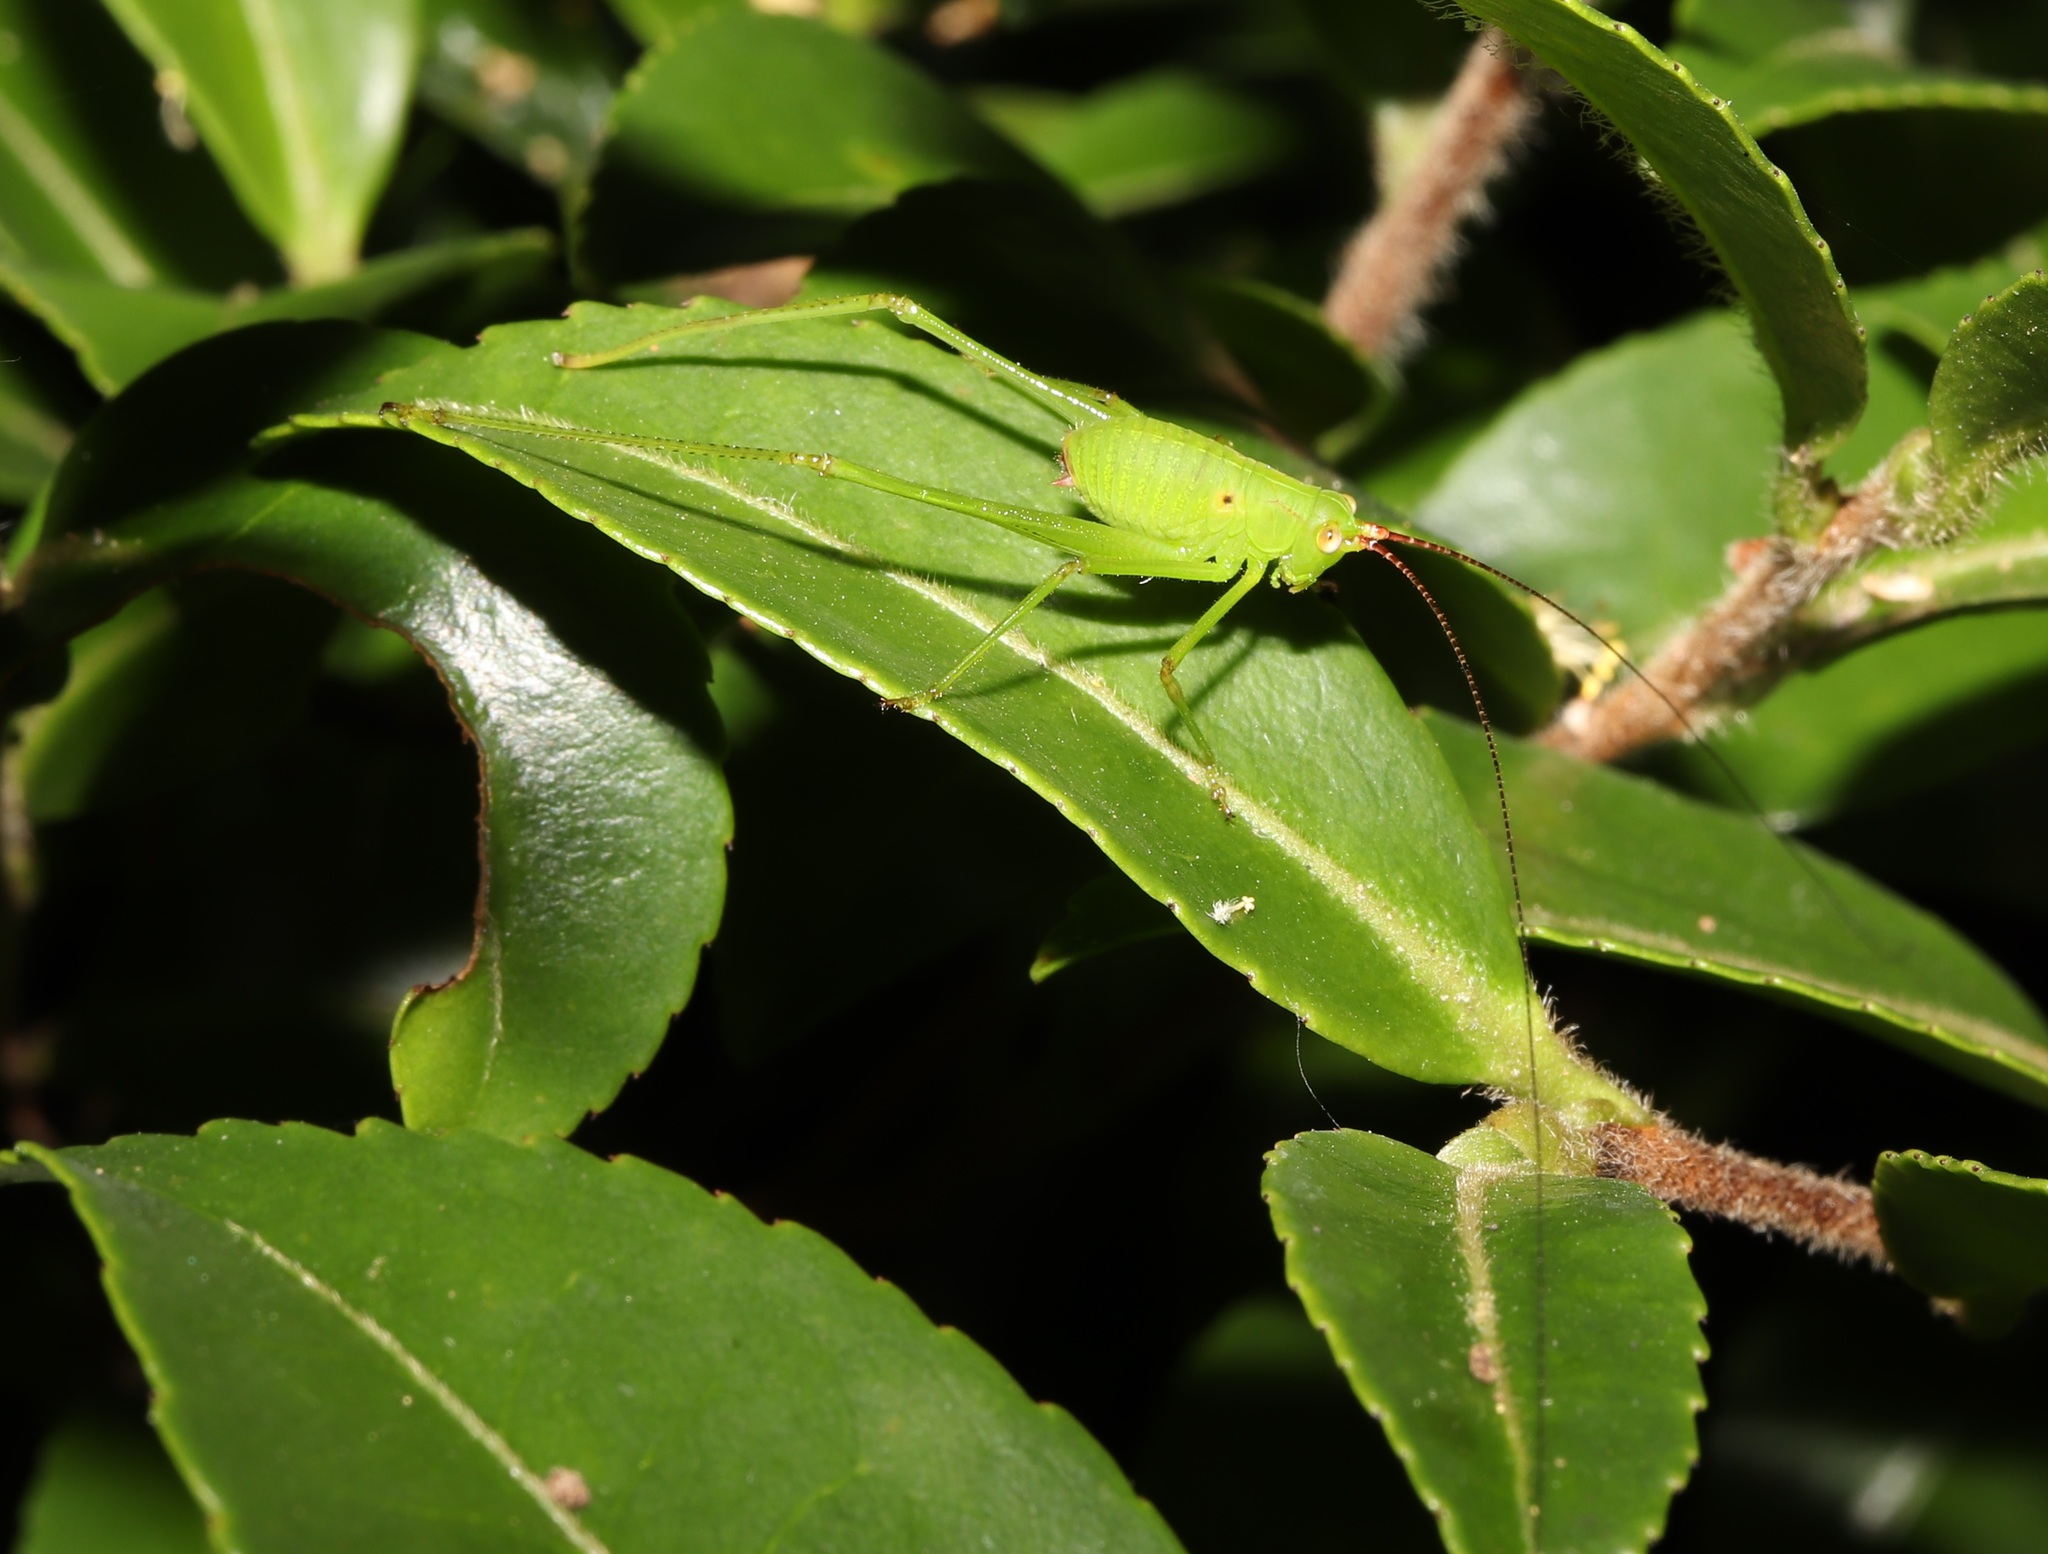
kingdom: Animalia
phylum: Arthropoda
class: Insecta
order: Orthoptera
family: Tettigoniidae
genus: Holochlora
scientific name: Holochlora japonica
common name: Japanese broadwinged katydid
